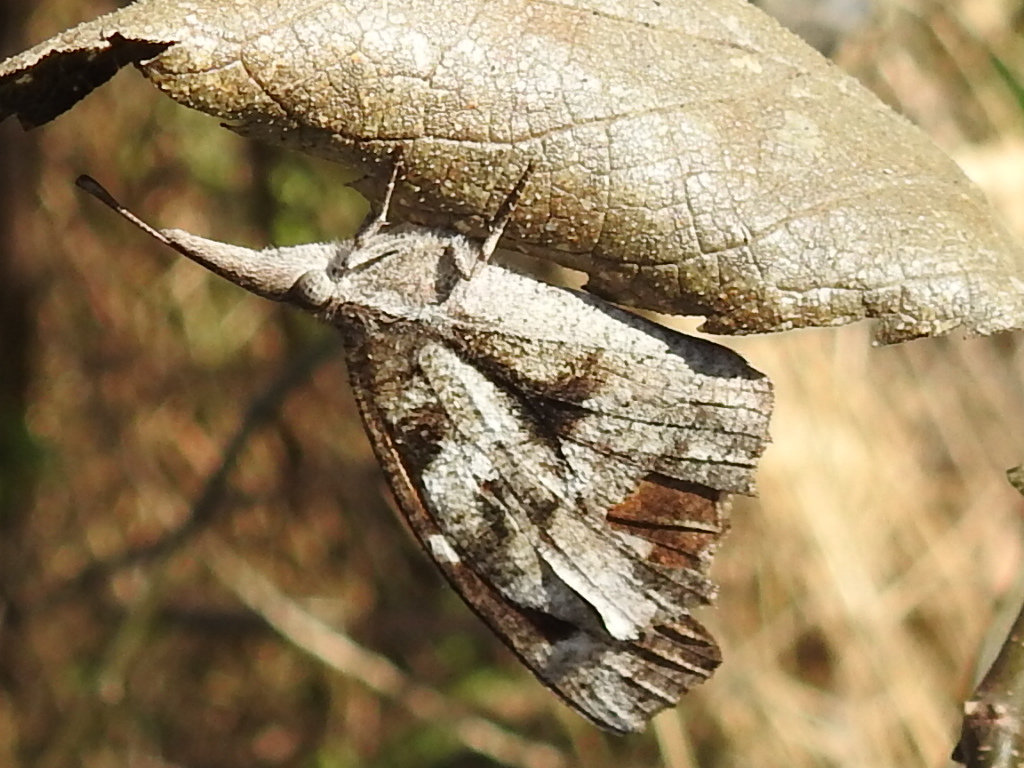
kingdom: Animalia
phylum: Arthropoda
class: Insecta
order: Lepidoptera
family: Nymphalidae
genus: Libytheana
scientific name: Libytheana carinenta
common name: American snout
